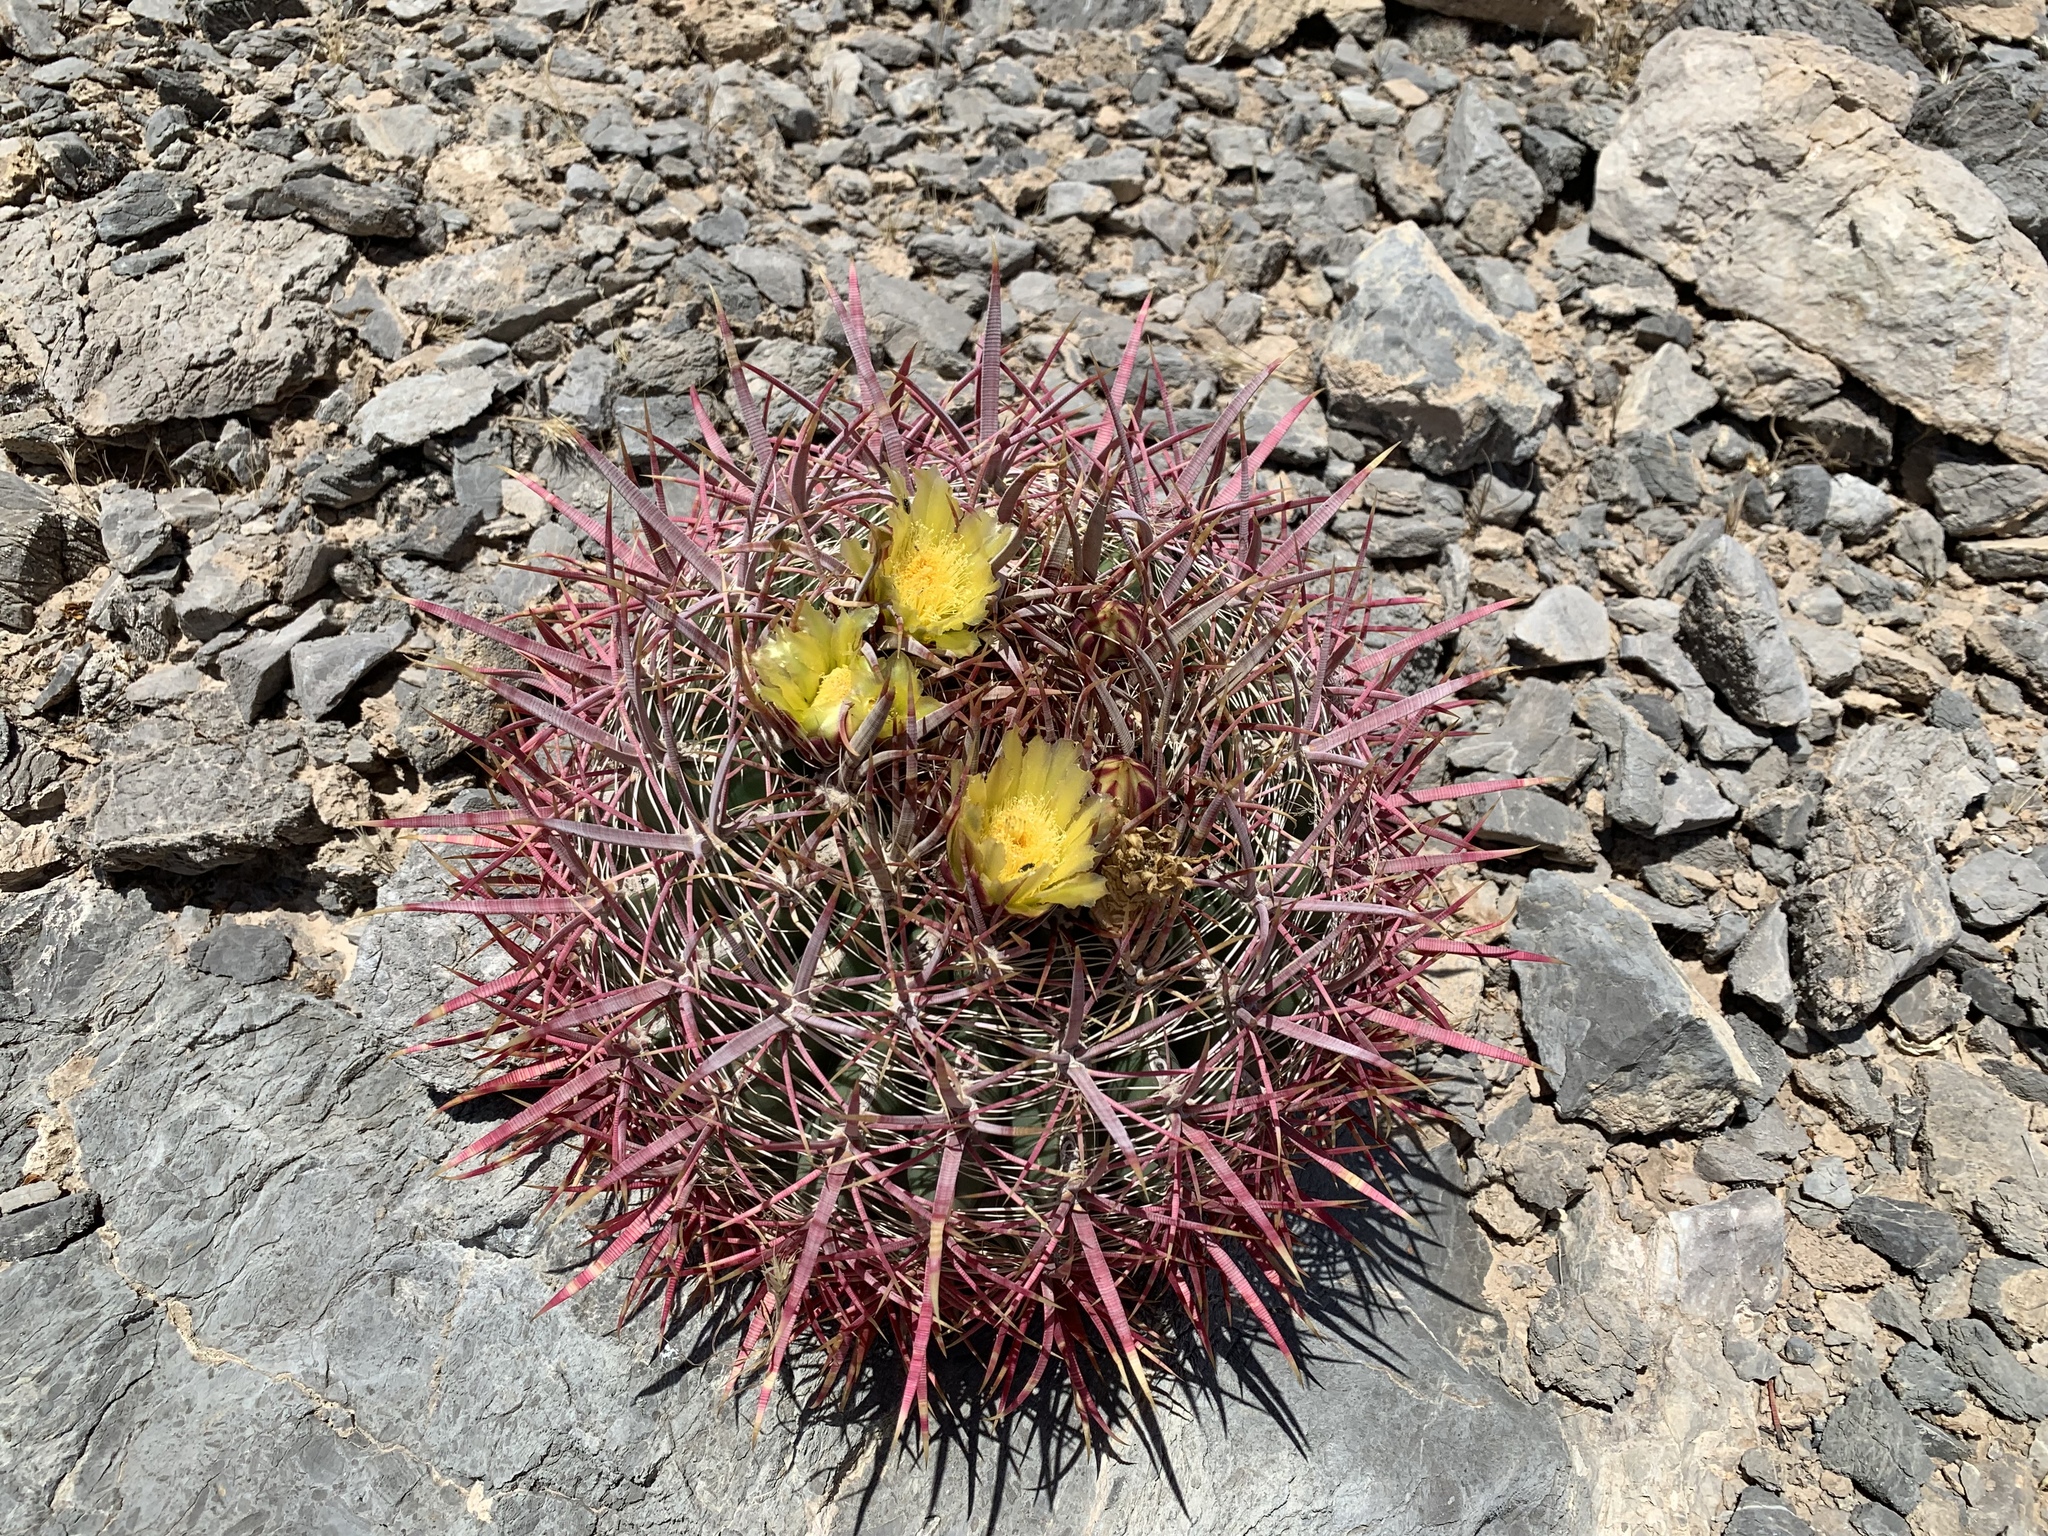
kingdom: Plantae
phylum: Tracheophyta
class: Magnoliopsida
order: Caryophyllales
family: Cactaceae
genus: Ferocactus
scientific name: Ferocactus cylindraceus
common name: California barrel cactus
